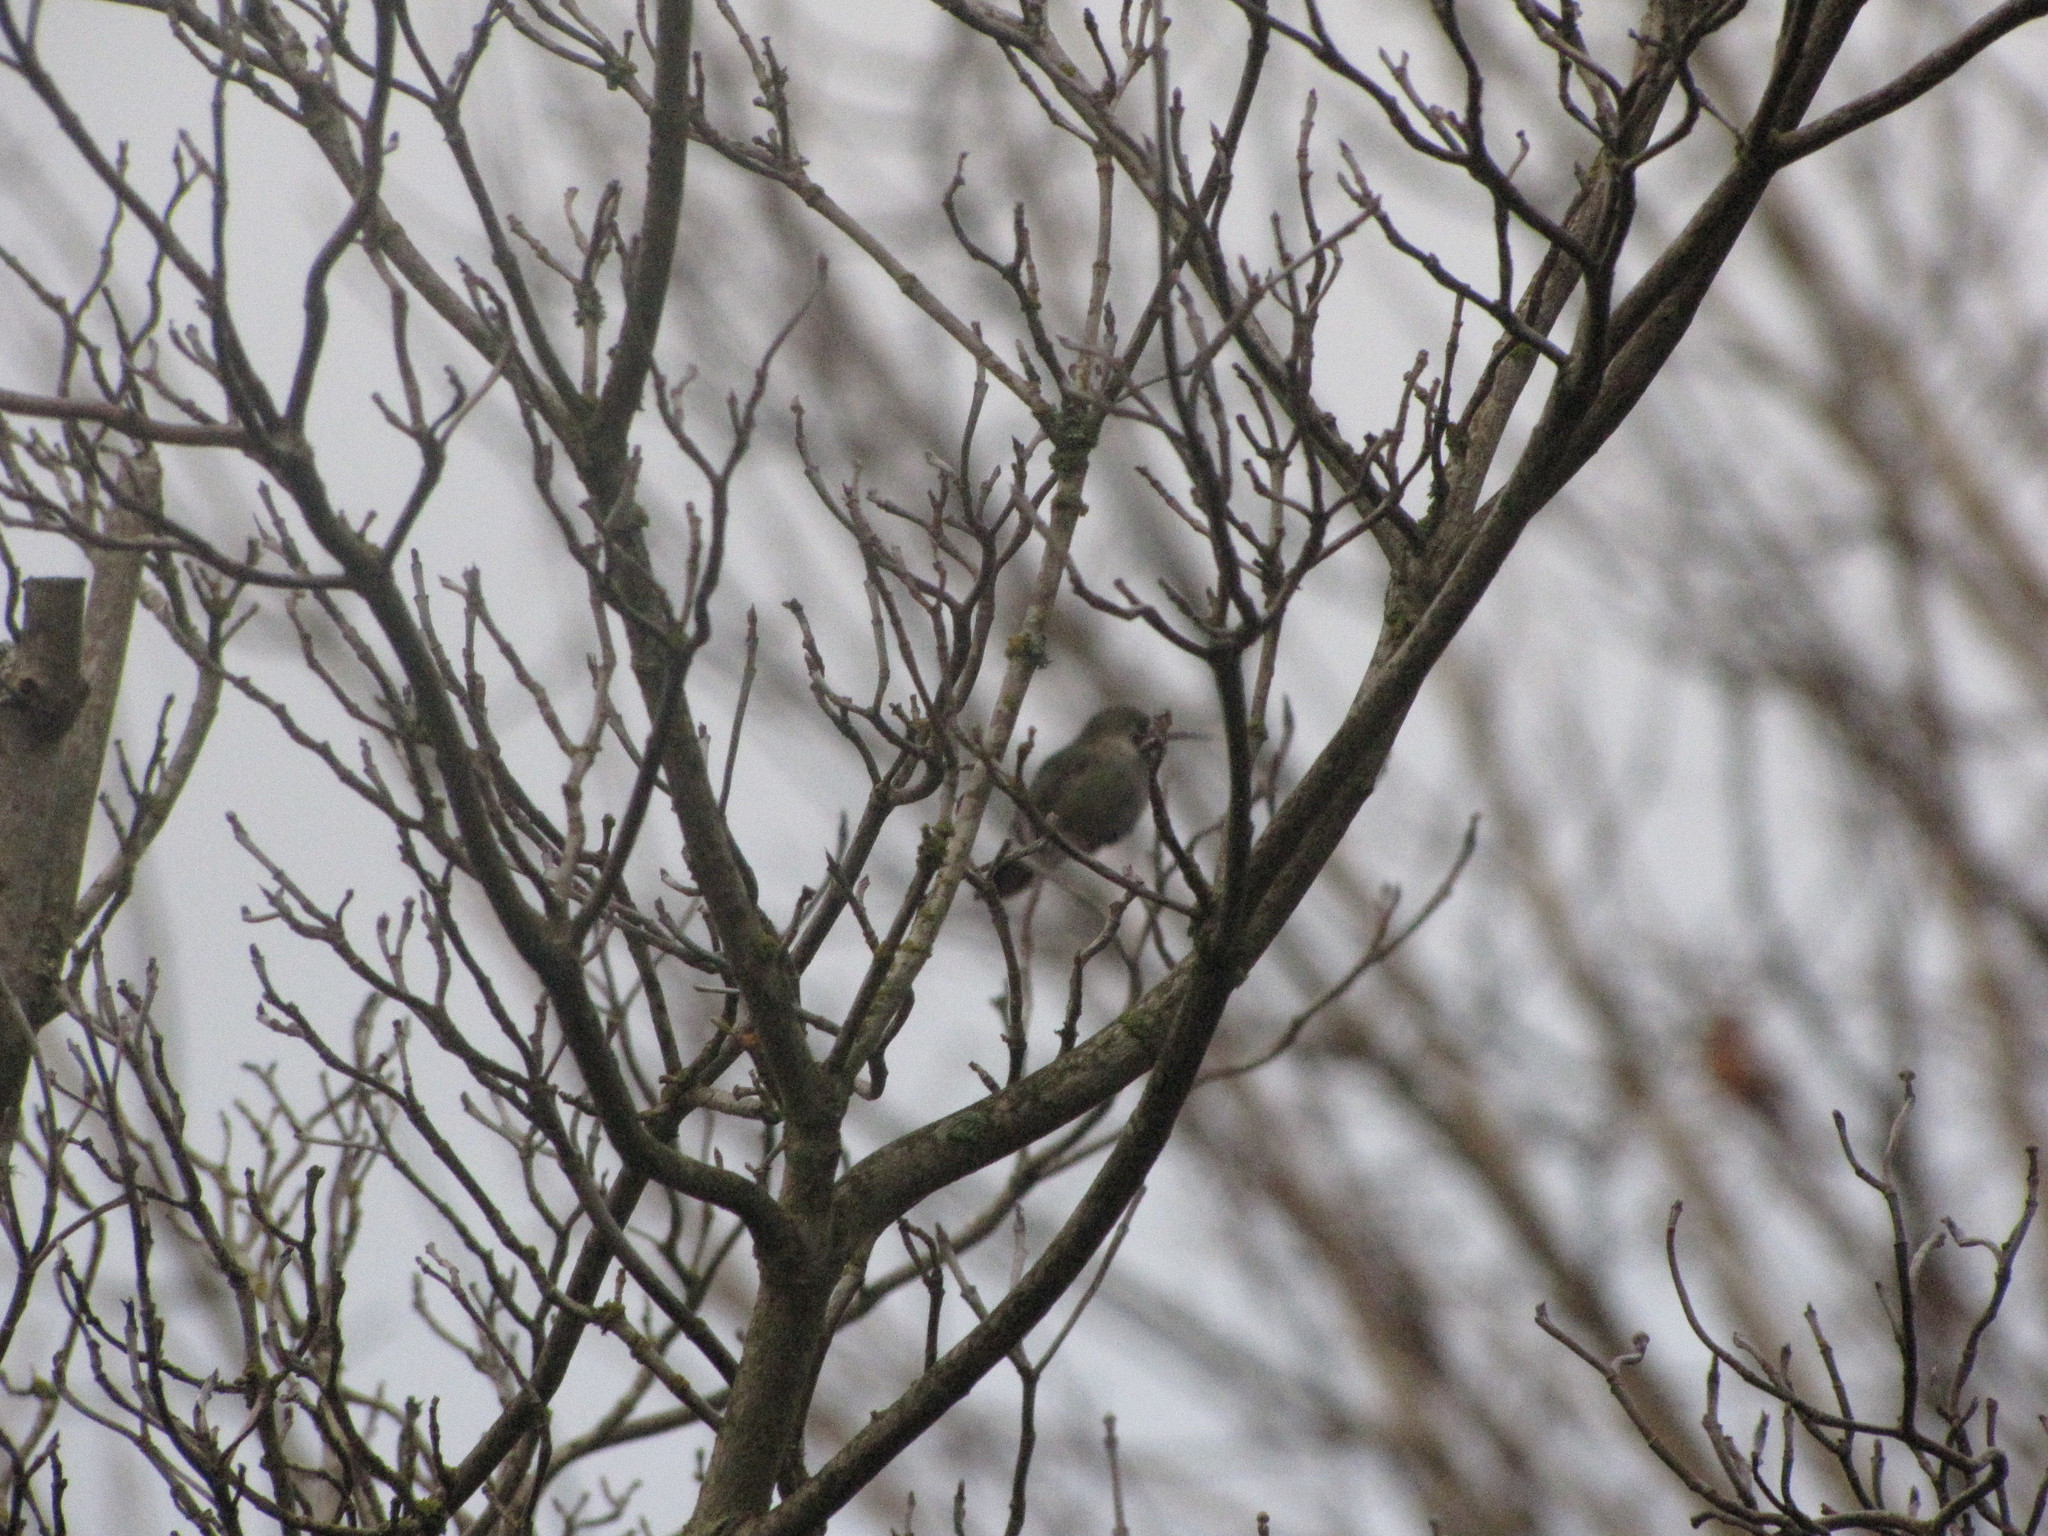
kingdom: Animalia
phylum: Chordata
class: Aves
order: Apodiformes
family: Trochilidae
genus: Calypte
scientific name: Calypte anna
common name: Anna's hummingbird
